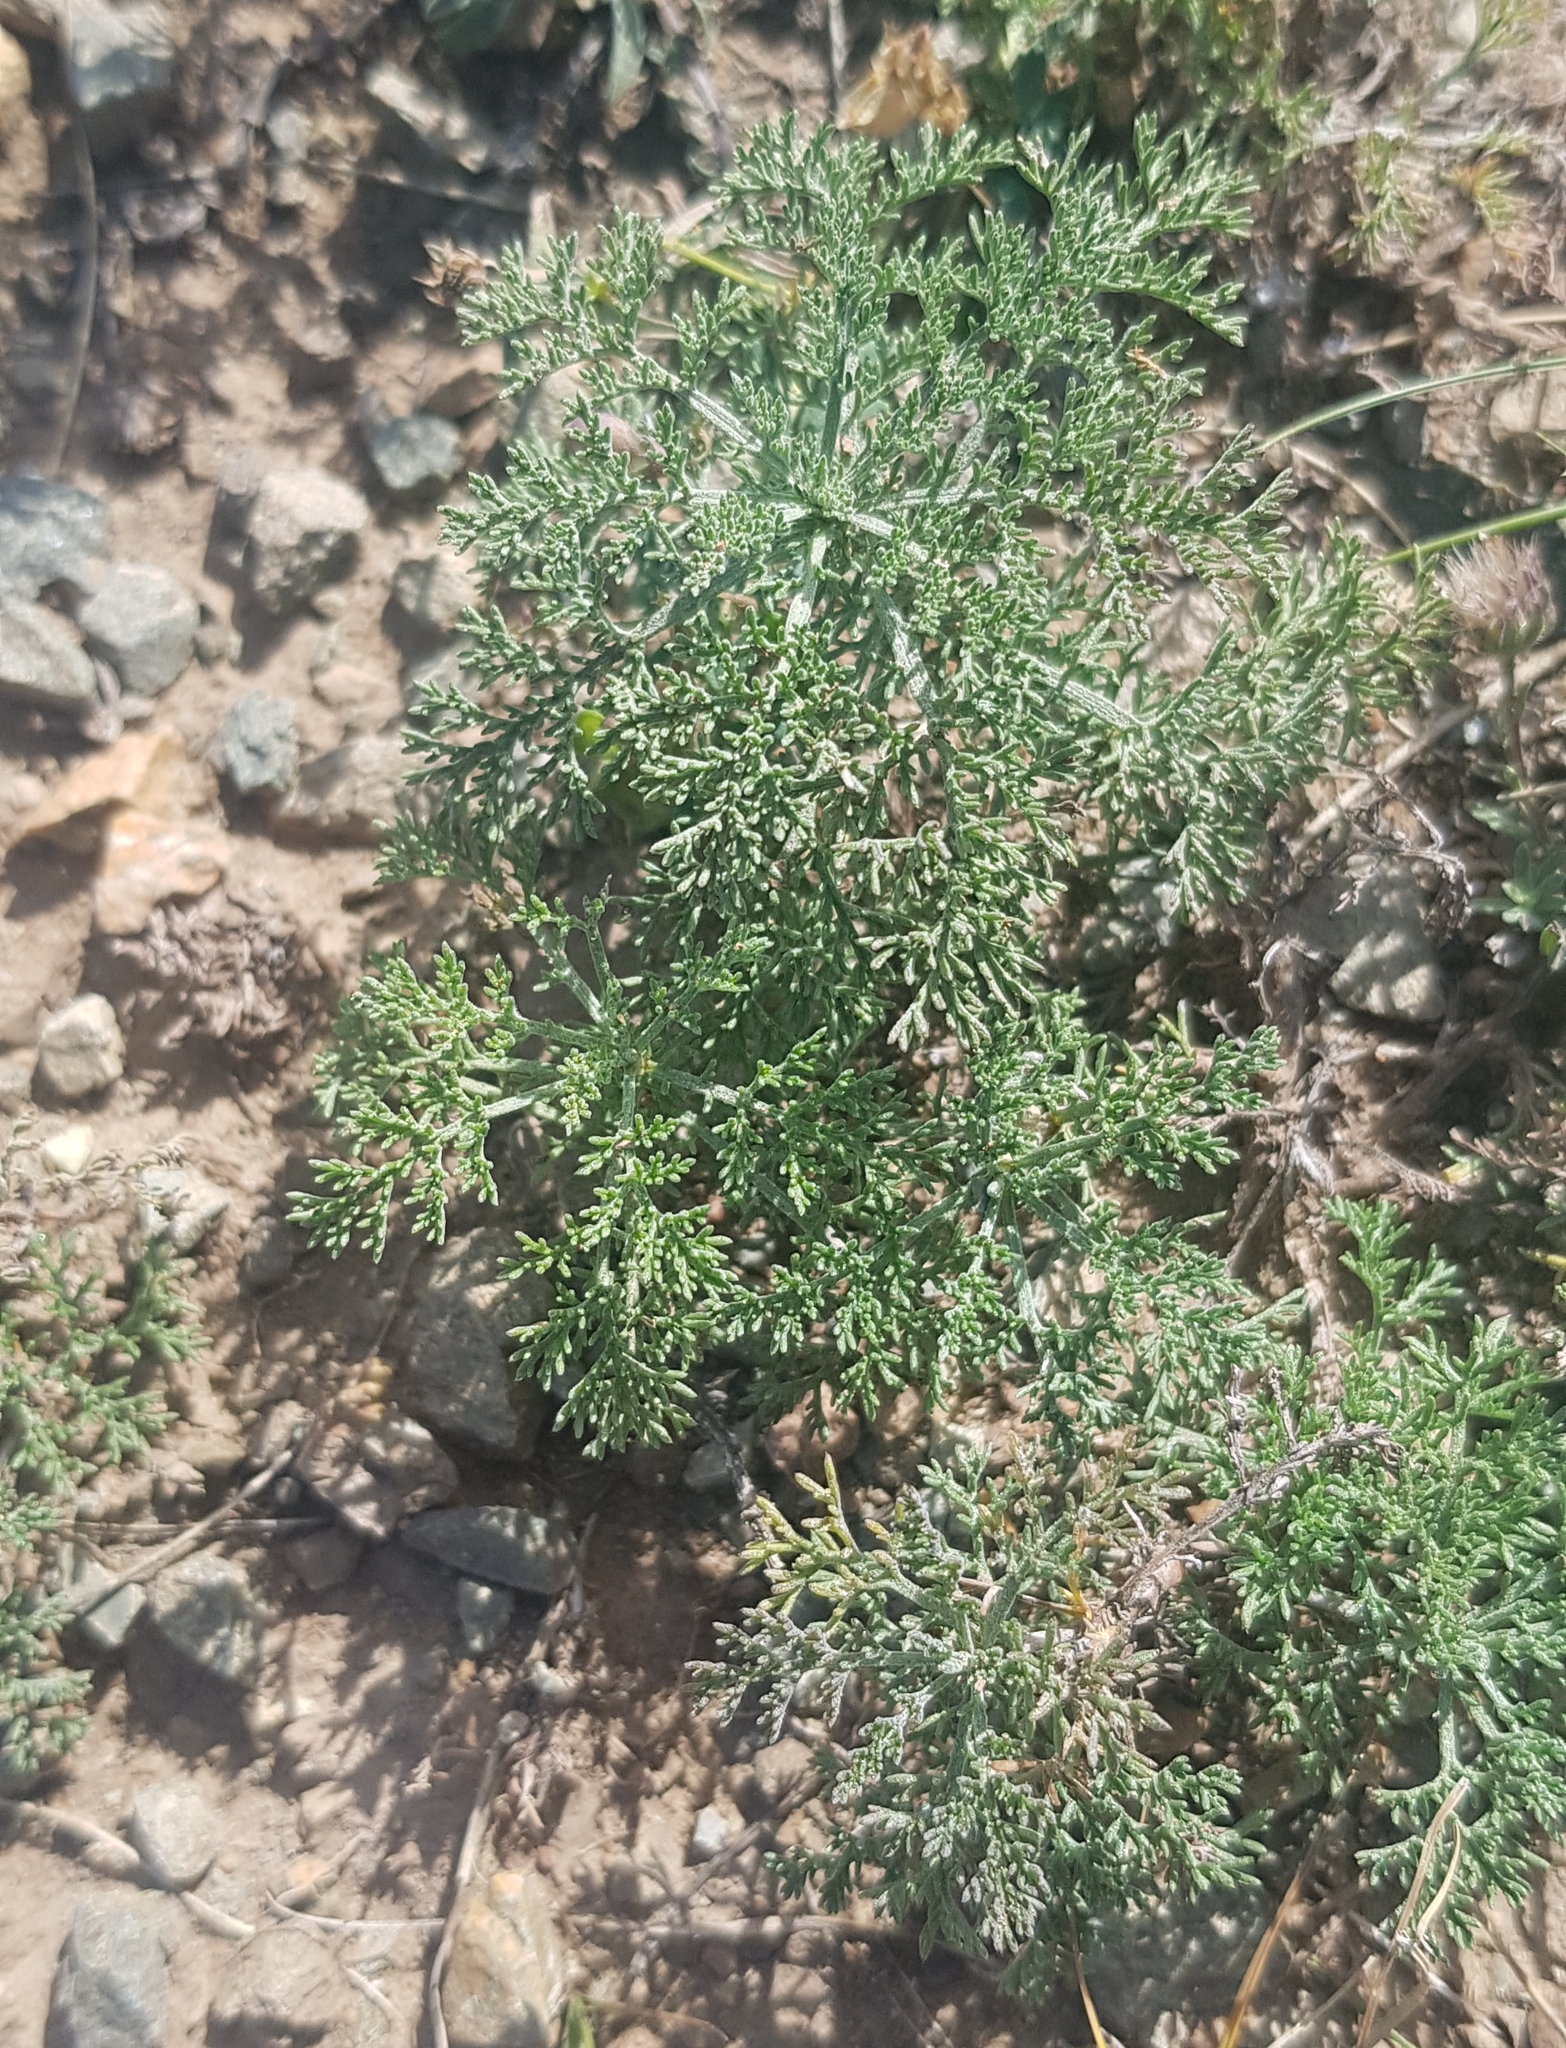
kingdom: Plantae
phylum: Tracheophyta
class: Magnoliopsida
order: Asterales
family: Asteraceae
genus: Artemisia
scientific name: Artemisia adamsii
